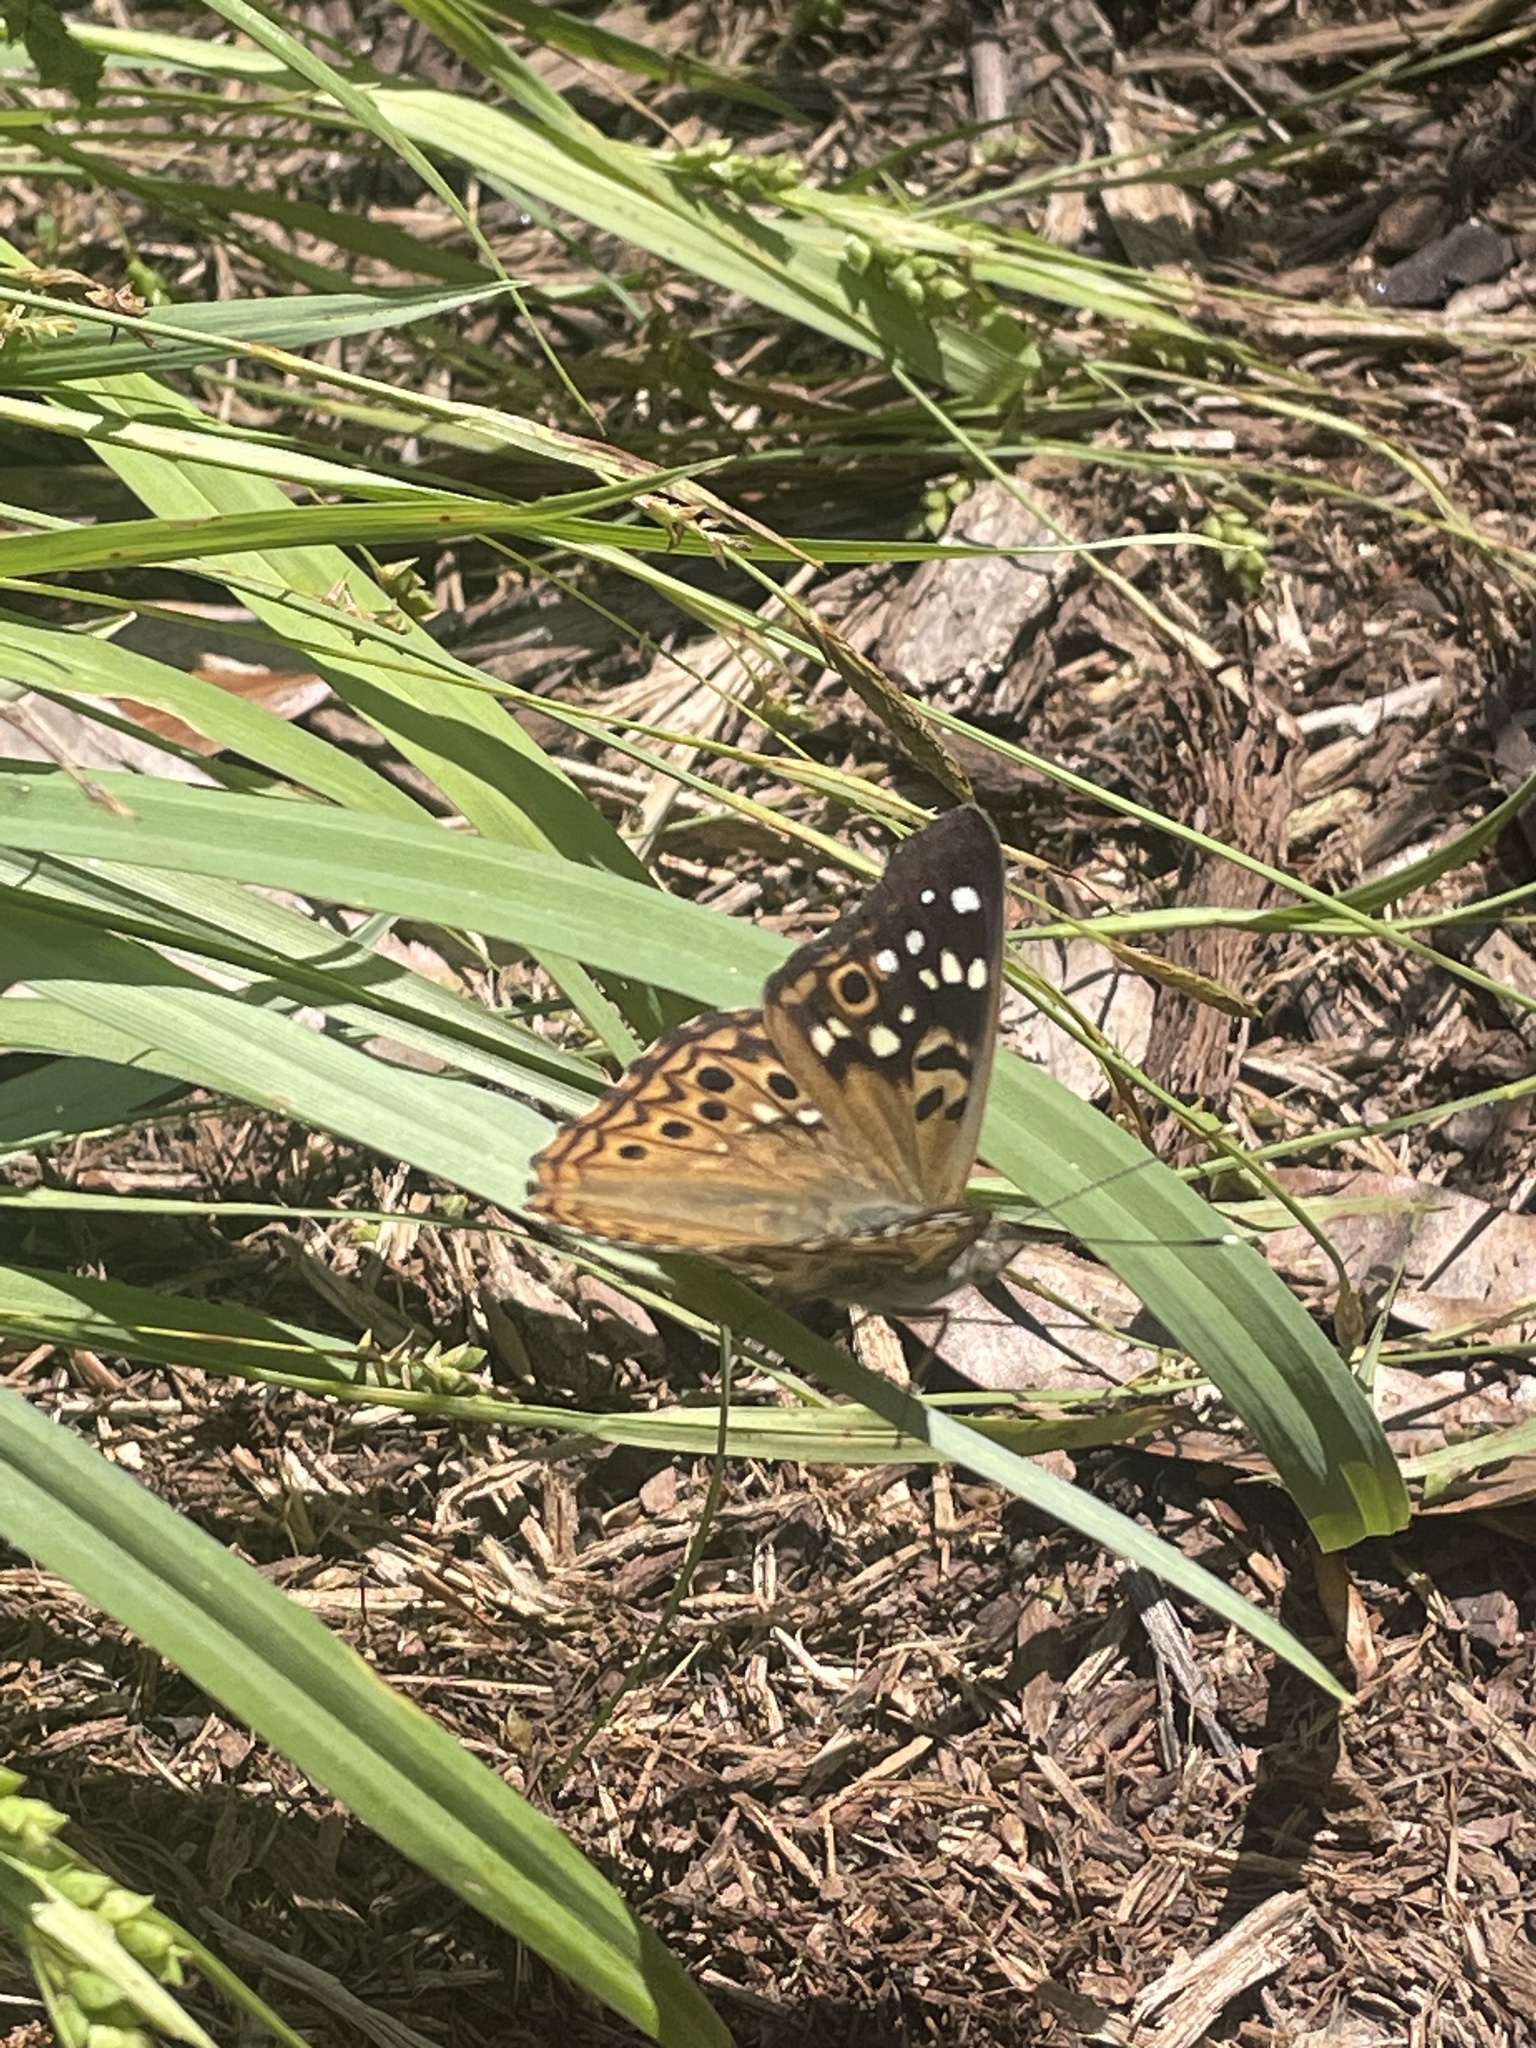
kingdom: Animalia
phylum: Arthropoda
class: Insecta
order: Lepidoptera
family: Nymphalidae
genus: Asterocampa
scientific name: Asterocampa celtis
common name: Hackberry emperor
